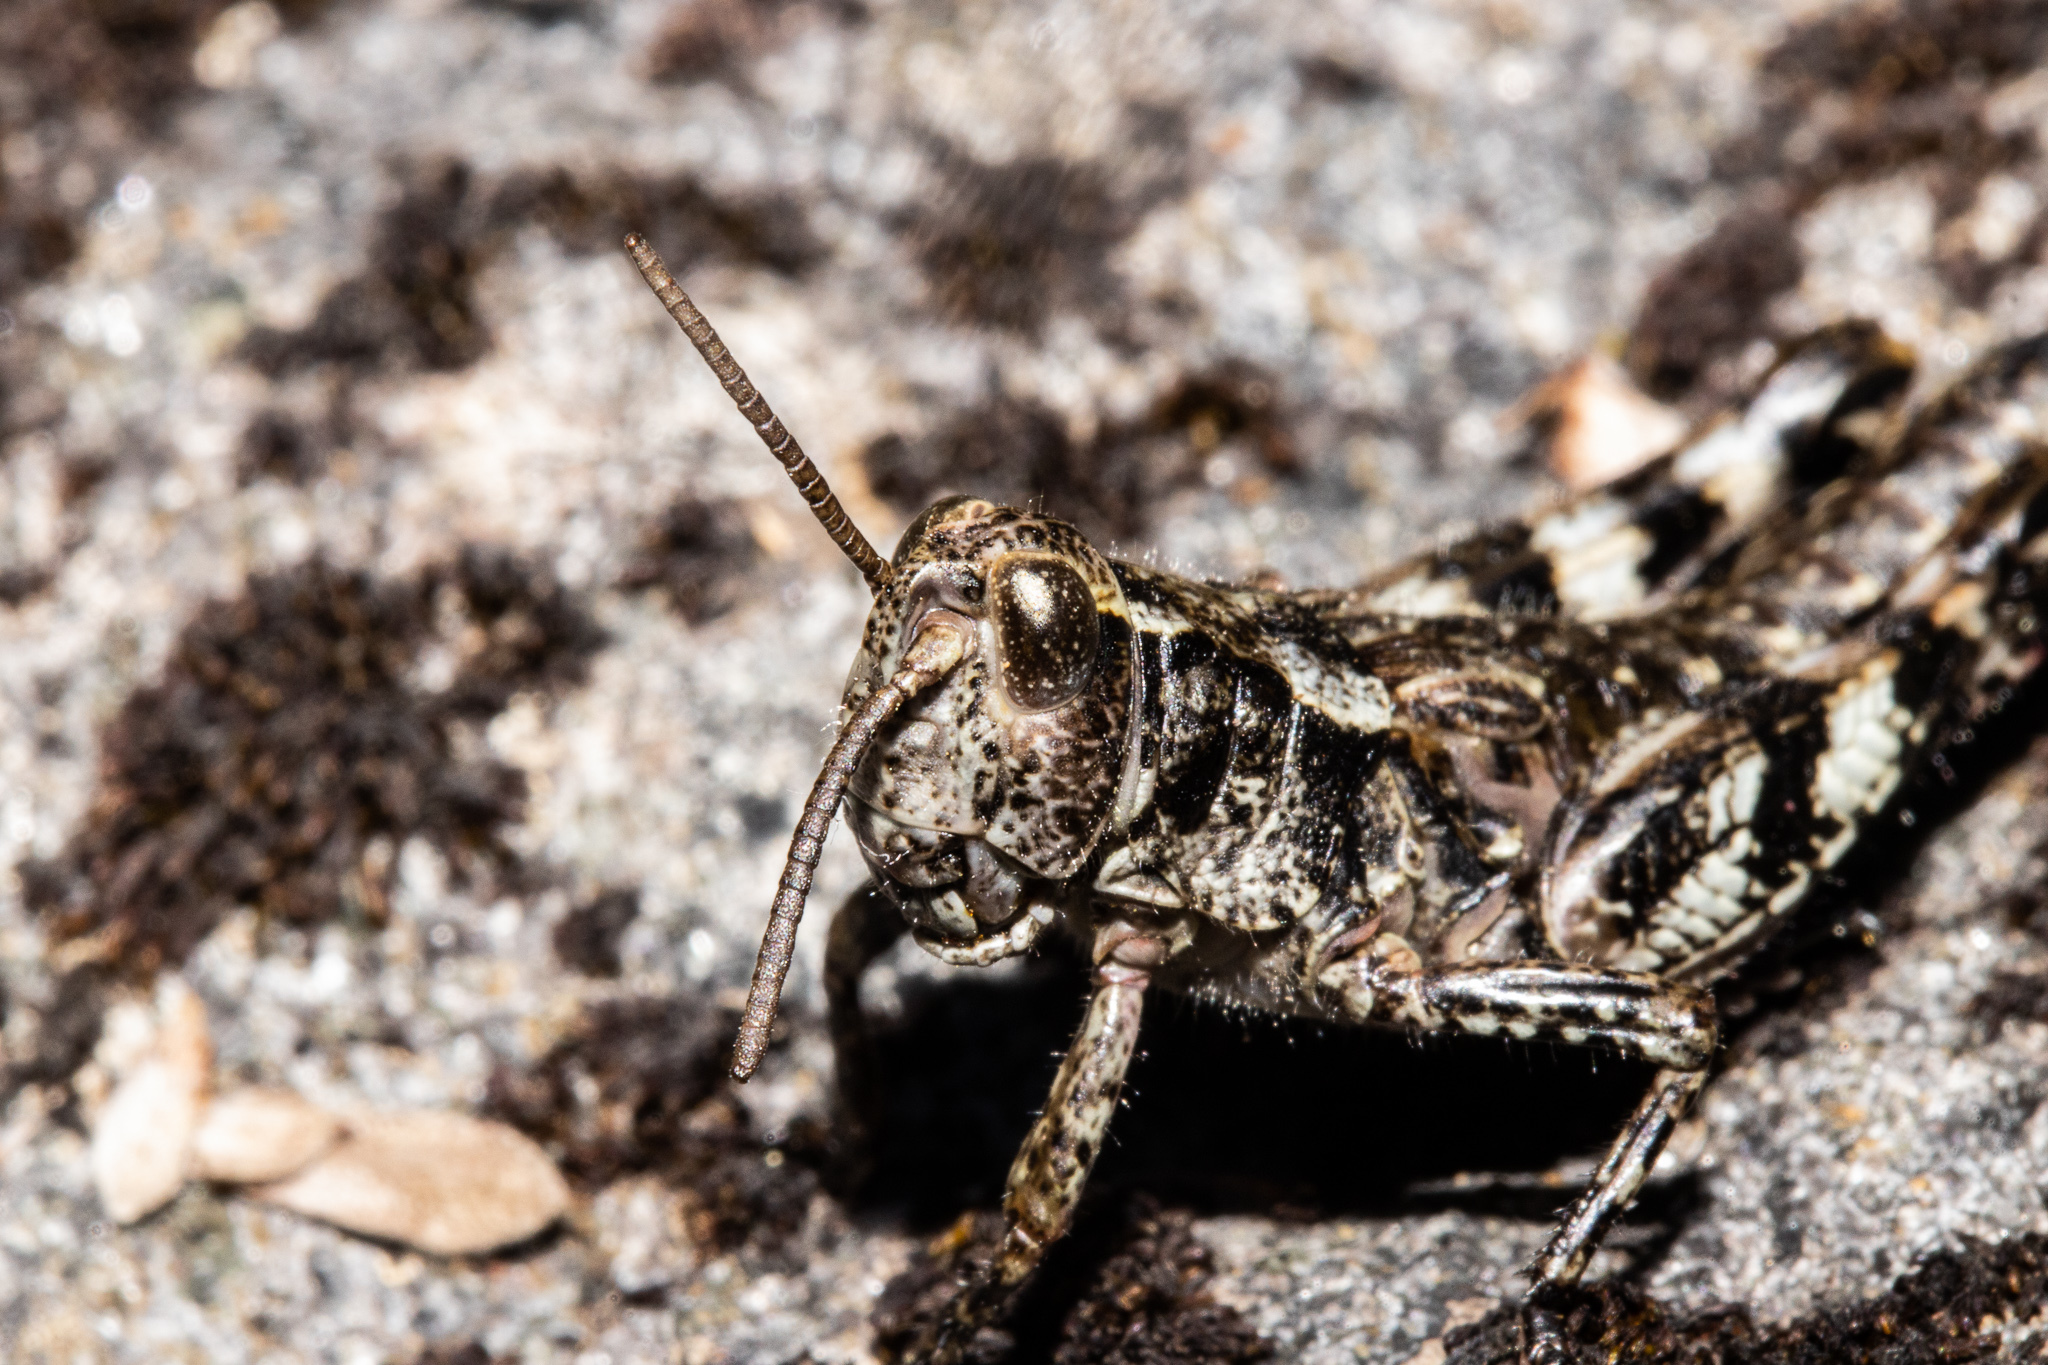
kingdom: Animalia
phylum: Arthropoda
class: Insecta
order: Orthoptera
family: Acrididae
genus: Sigaus
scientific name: Sigaus australis
